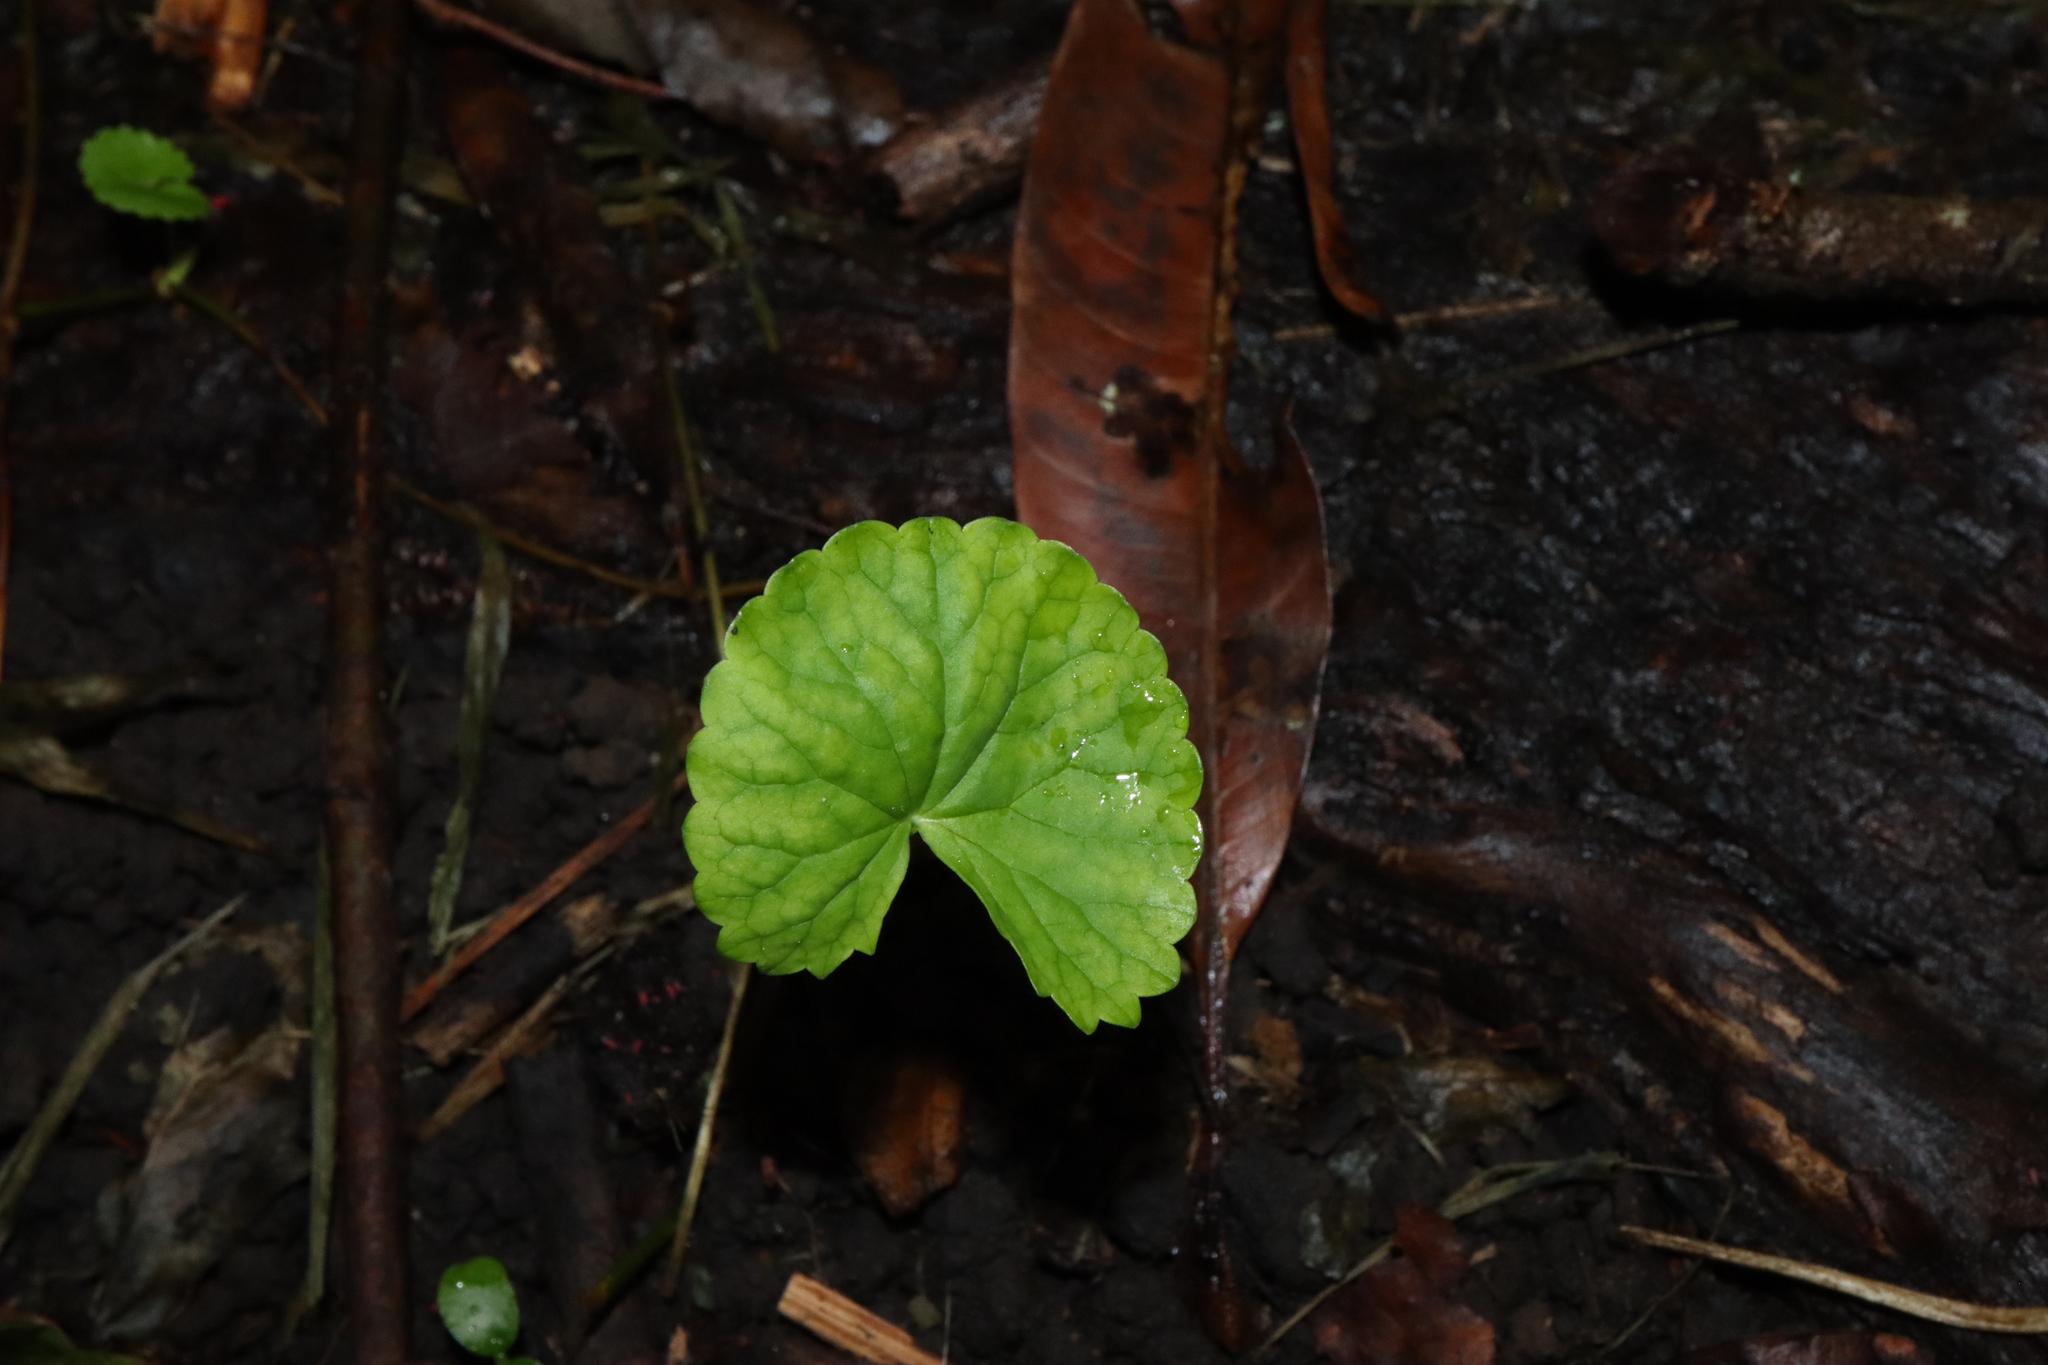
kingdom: Plantae
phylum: Tracheophyta
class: Magnoliopsida
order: Apiales
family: Apiaceae
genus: Centella
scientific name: Centella asiatica
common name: Spadeleaf
